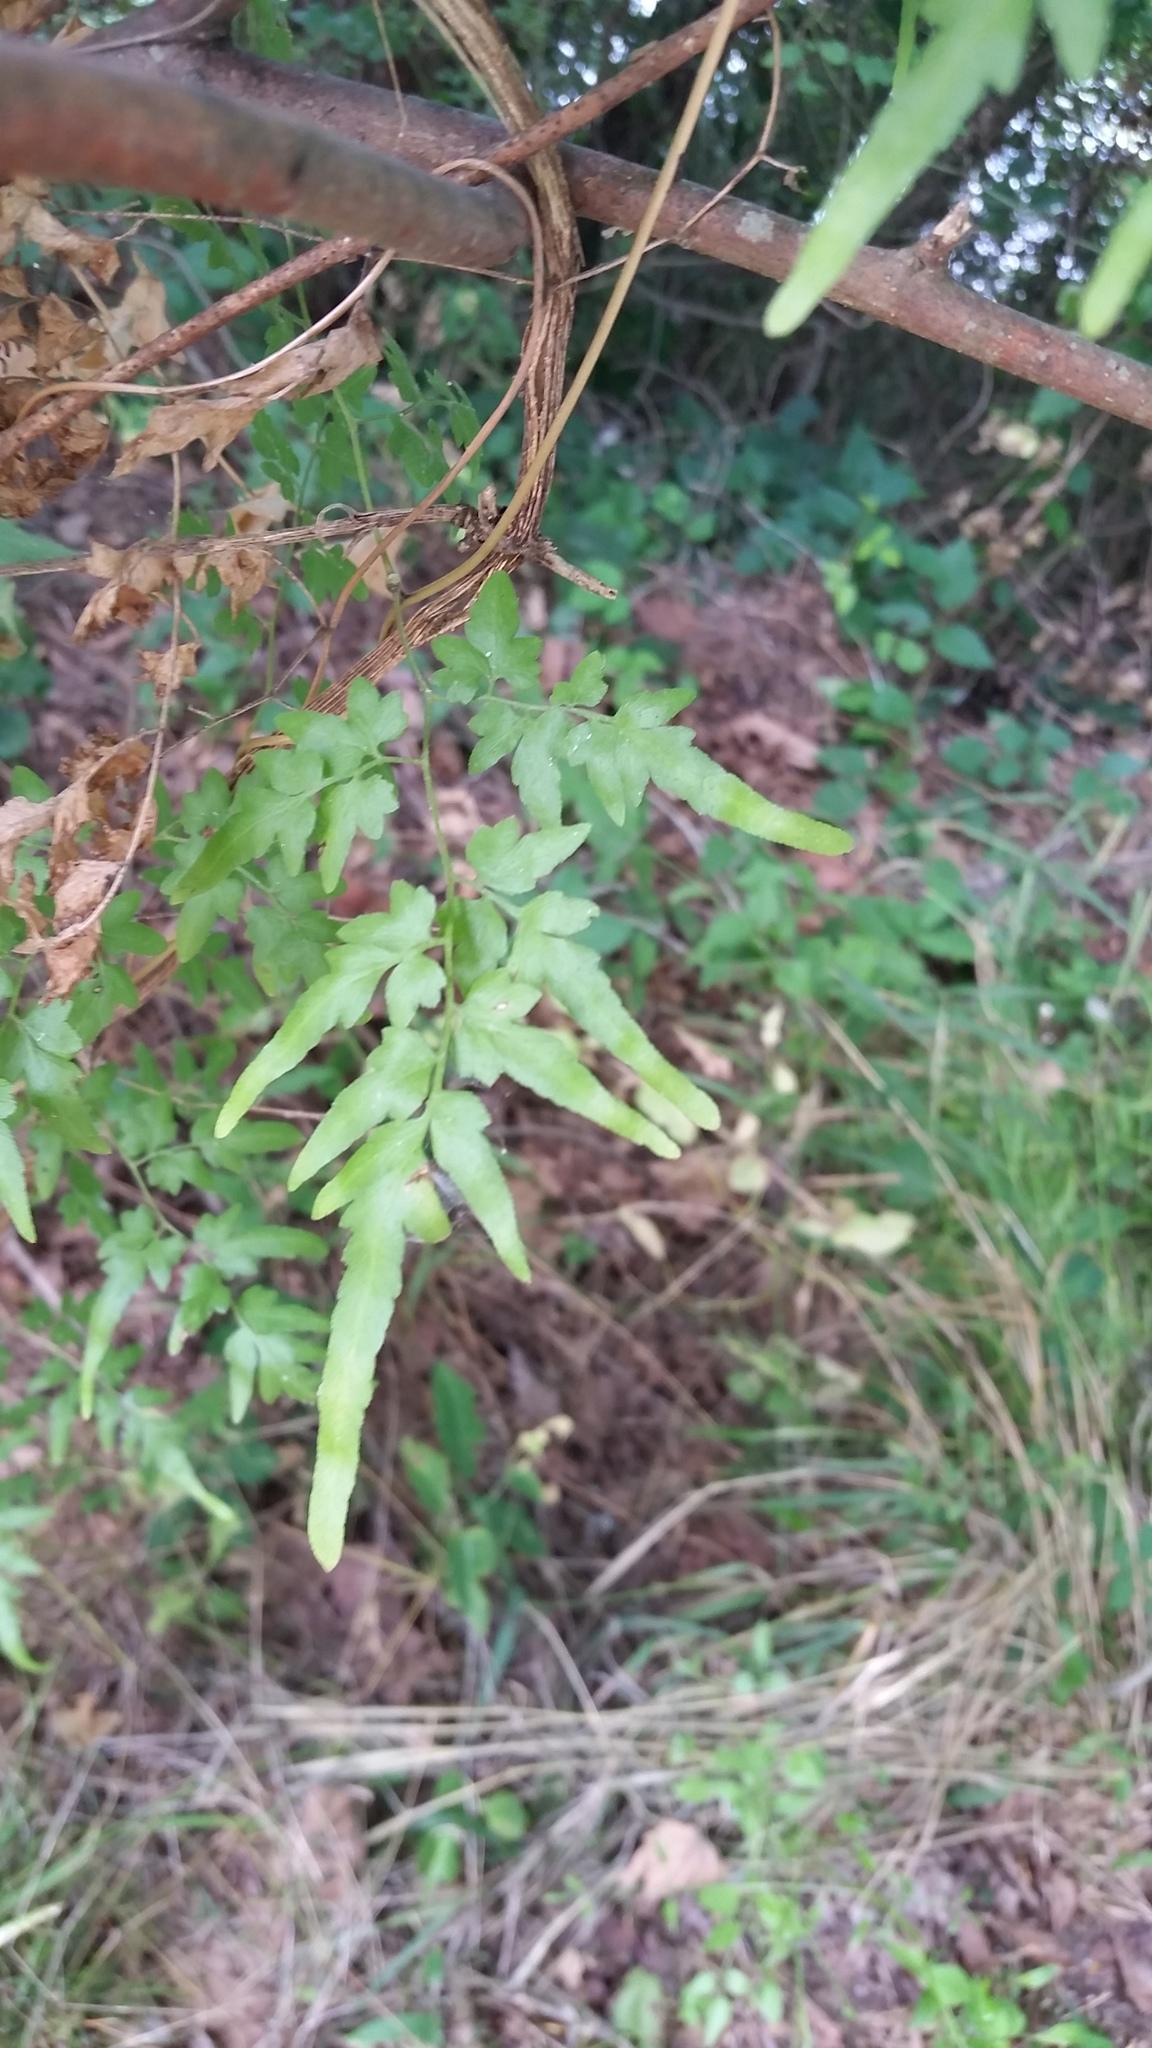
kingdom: Plantae
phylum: Tracheophyta
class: Polypodiopsida
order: Schizaeales
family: Lygodiaceae
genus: Lygodium
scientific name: Lygodium japonicum
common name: Japanese climbing fern
